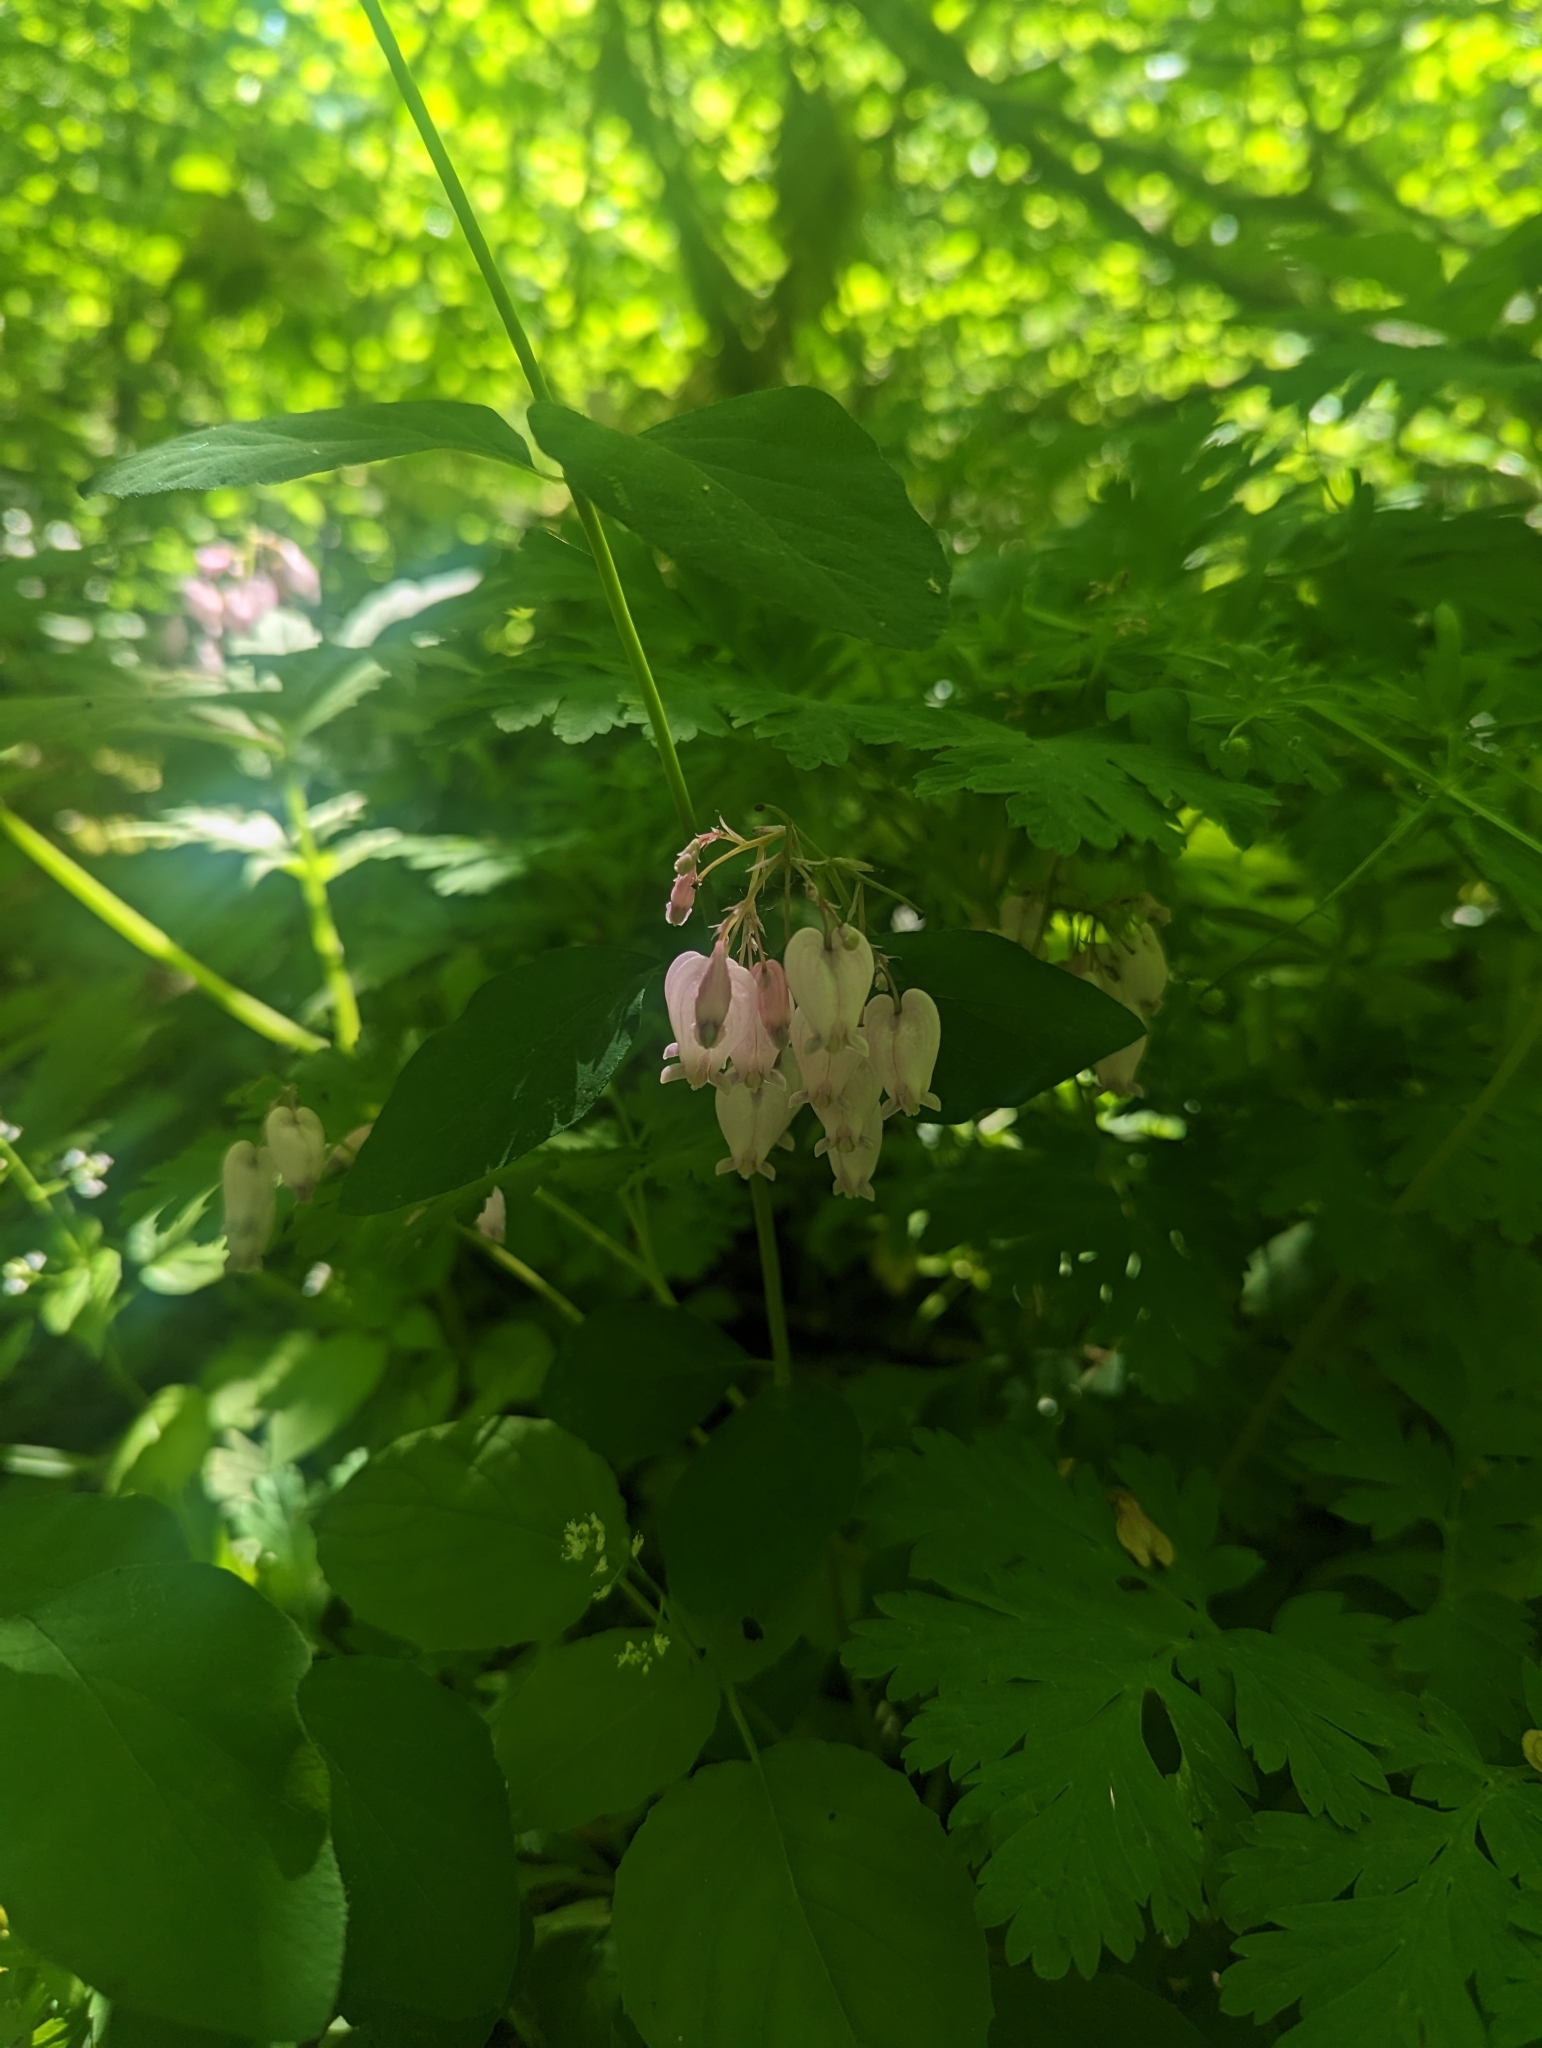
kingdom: Plantae
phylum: Tracheophyta
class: Magnoliopsida
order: Ranunculales
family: Papaveraceae
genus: Dicentra
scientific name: Dicentra formosa
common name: Bleeding-heart
